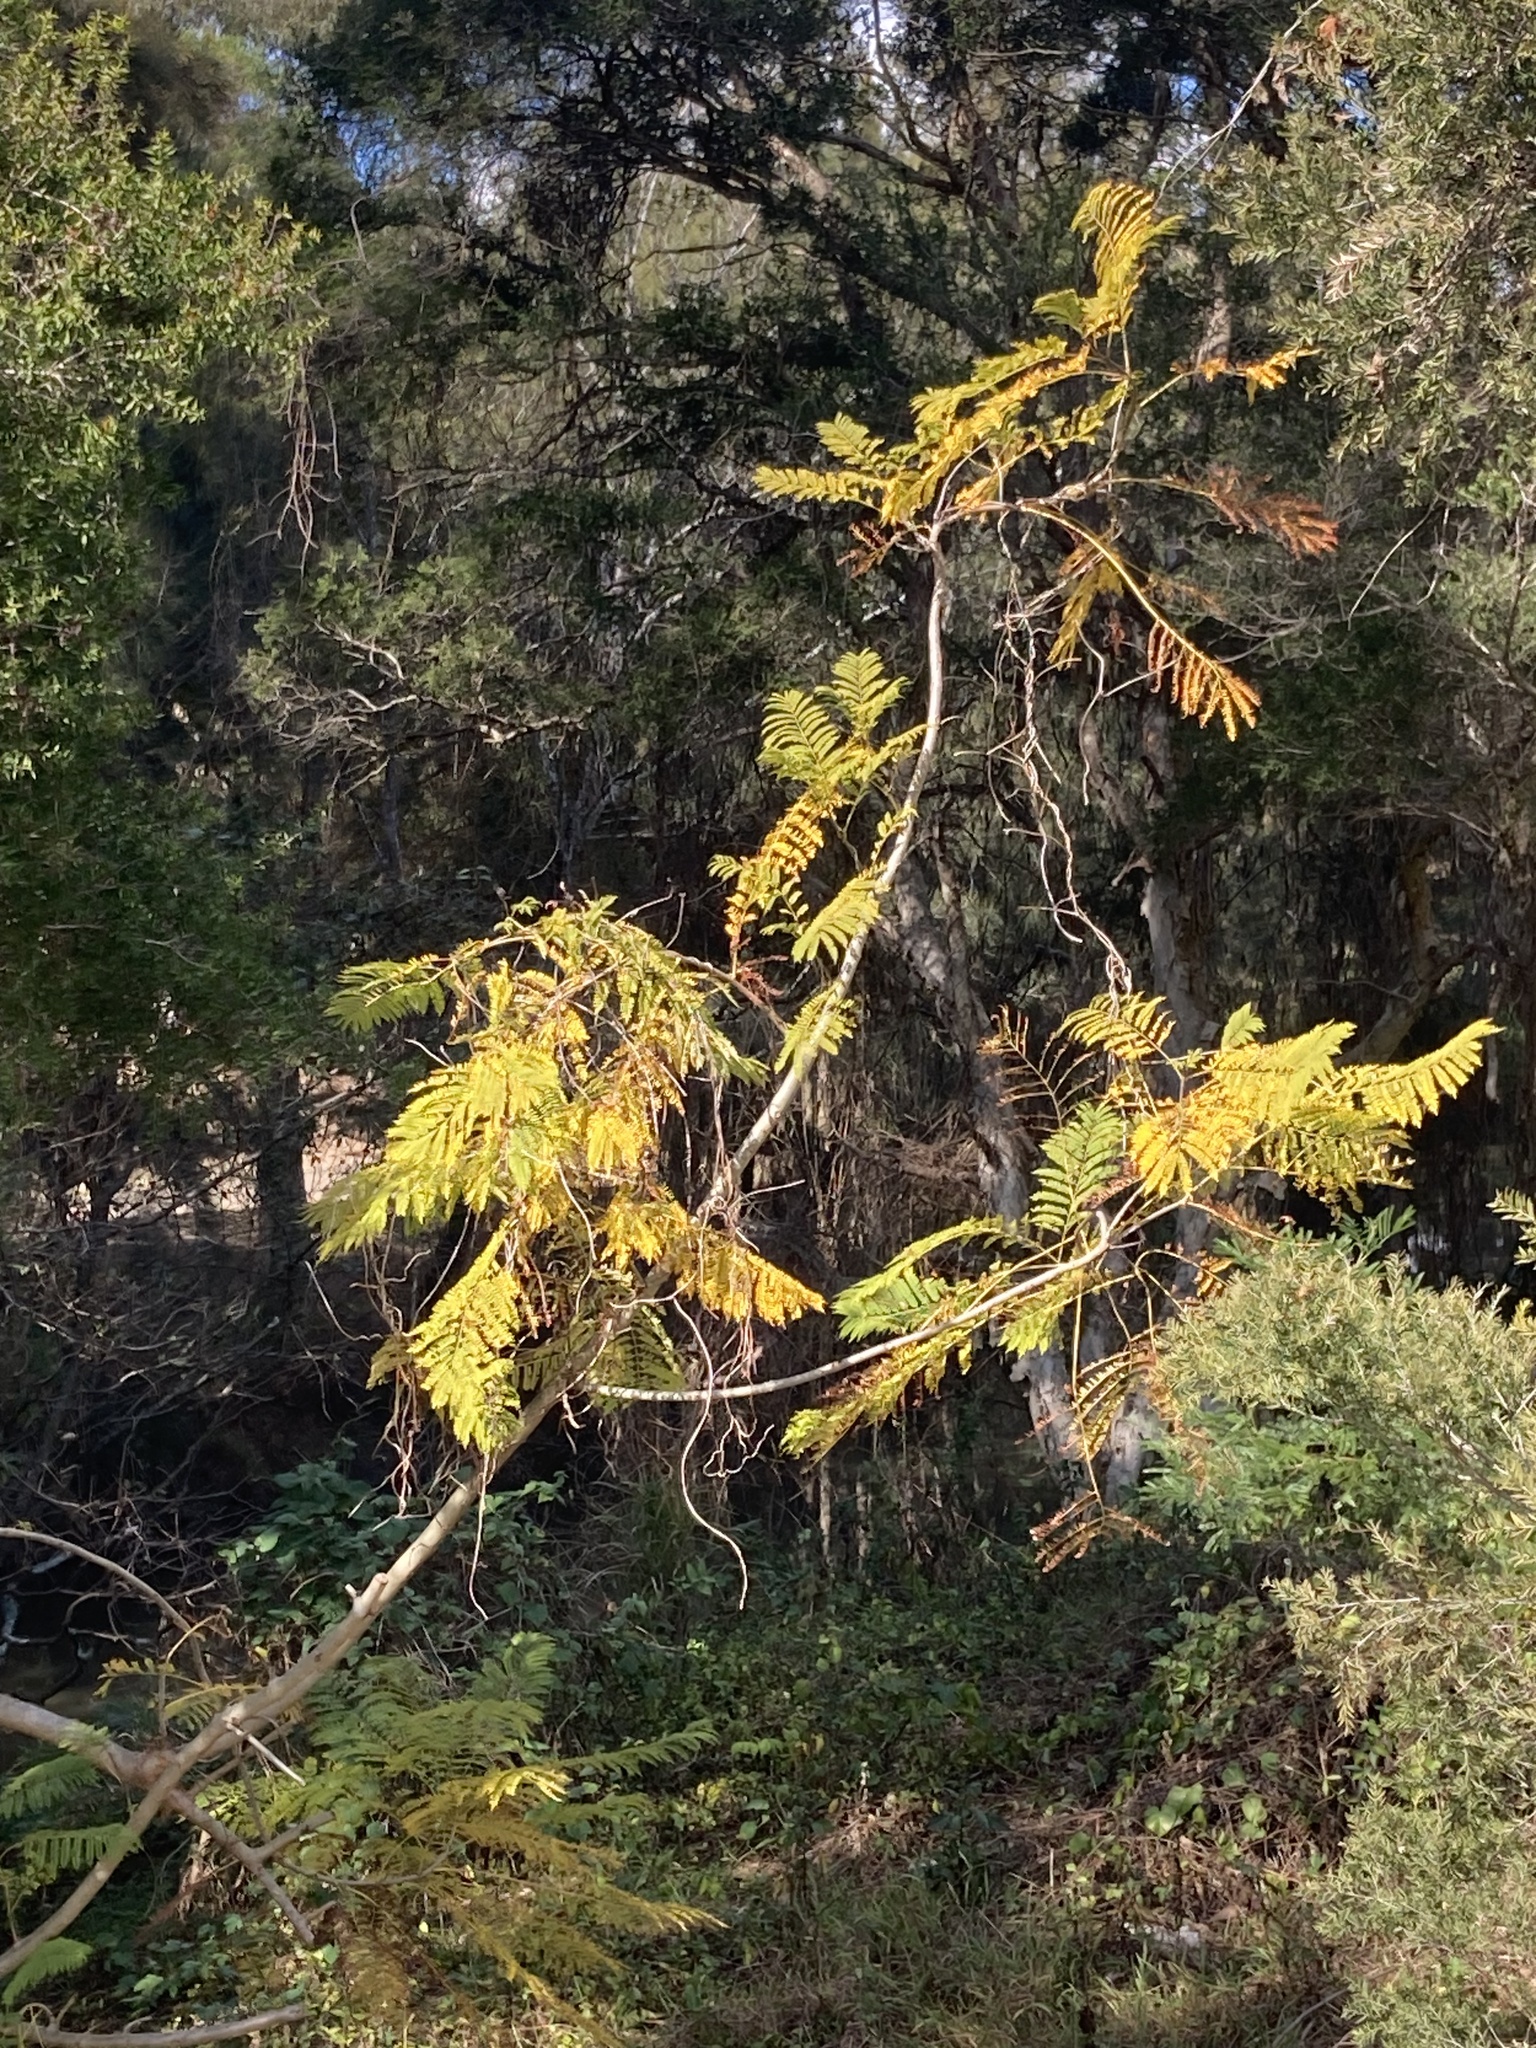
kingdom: Plantae
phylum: Tracheophyta
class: Magnoliopsida
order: Lamiales
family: Bignoniaceae
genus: Jacaranda
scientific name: Jacaranda mimosifolia
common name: Black poui
